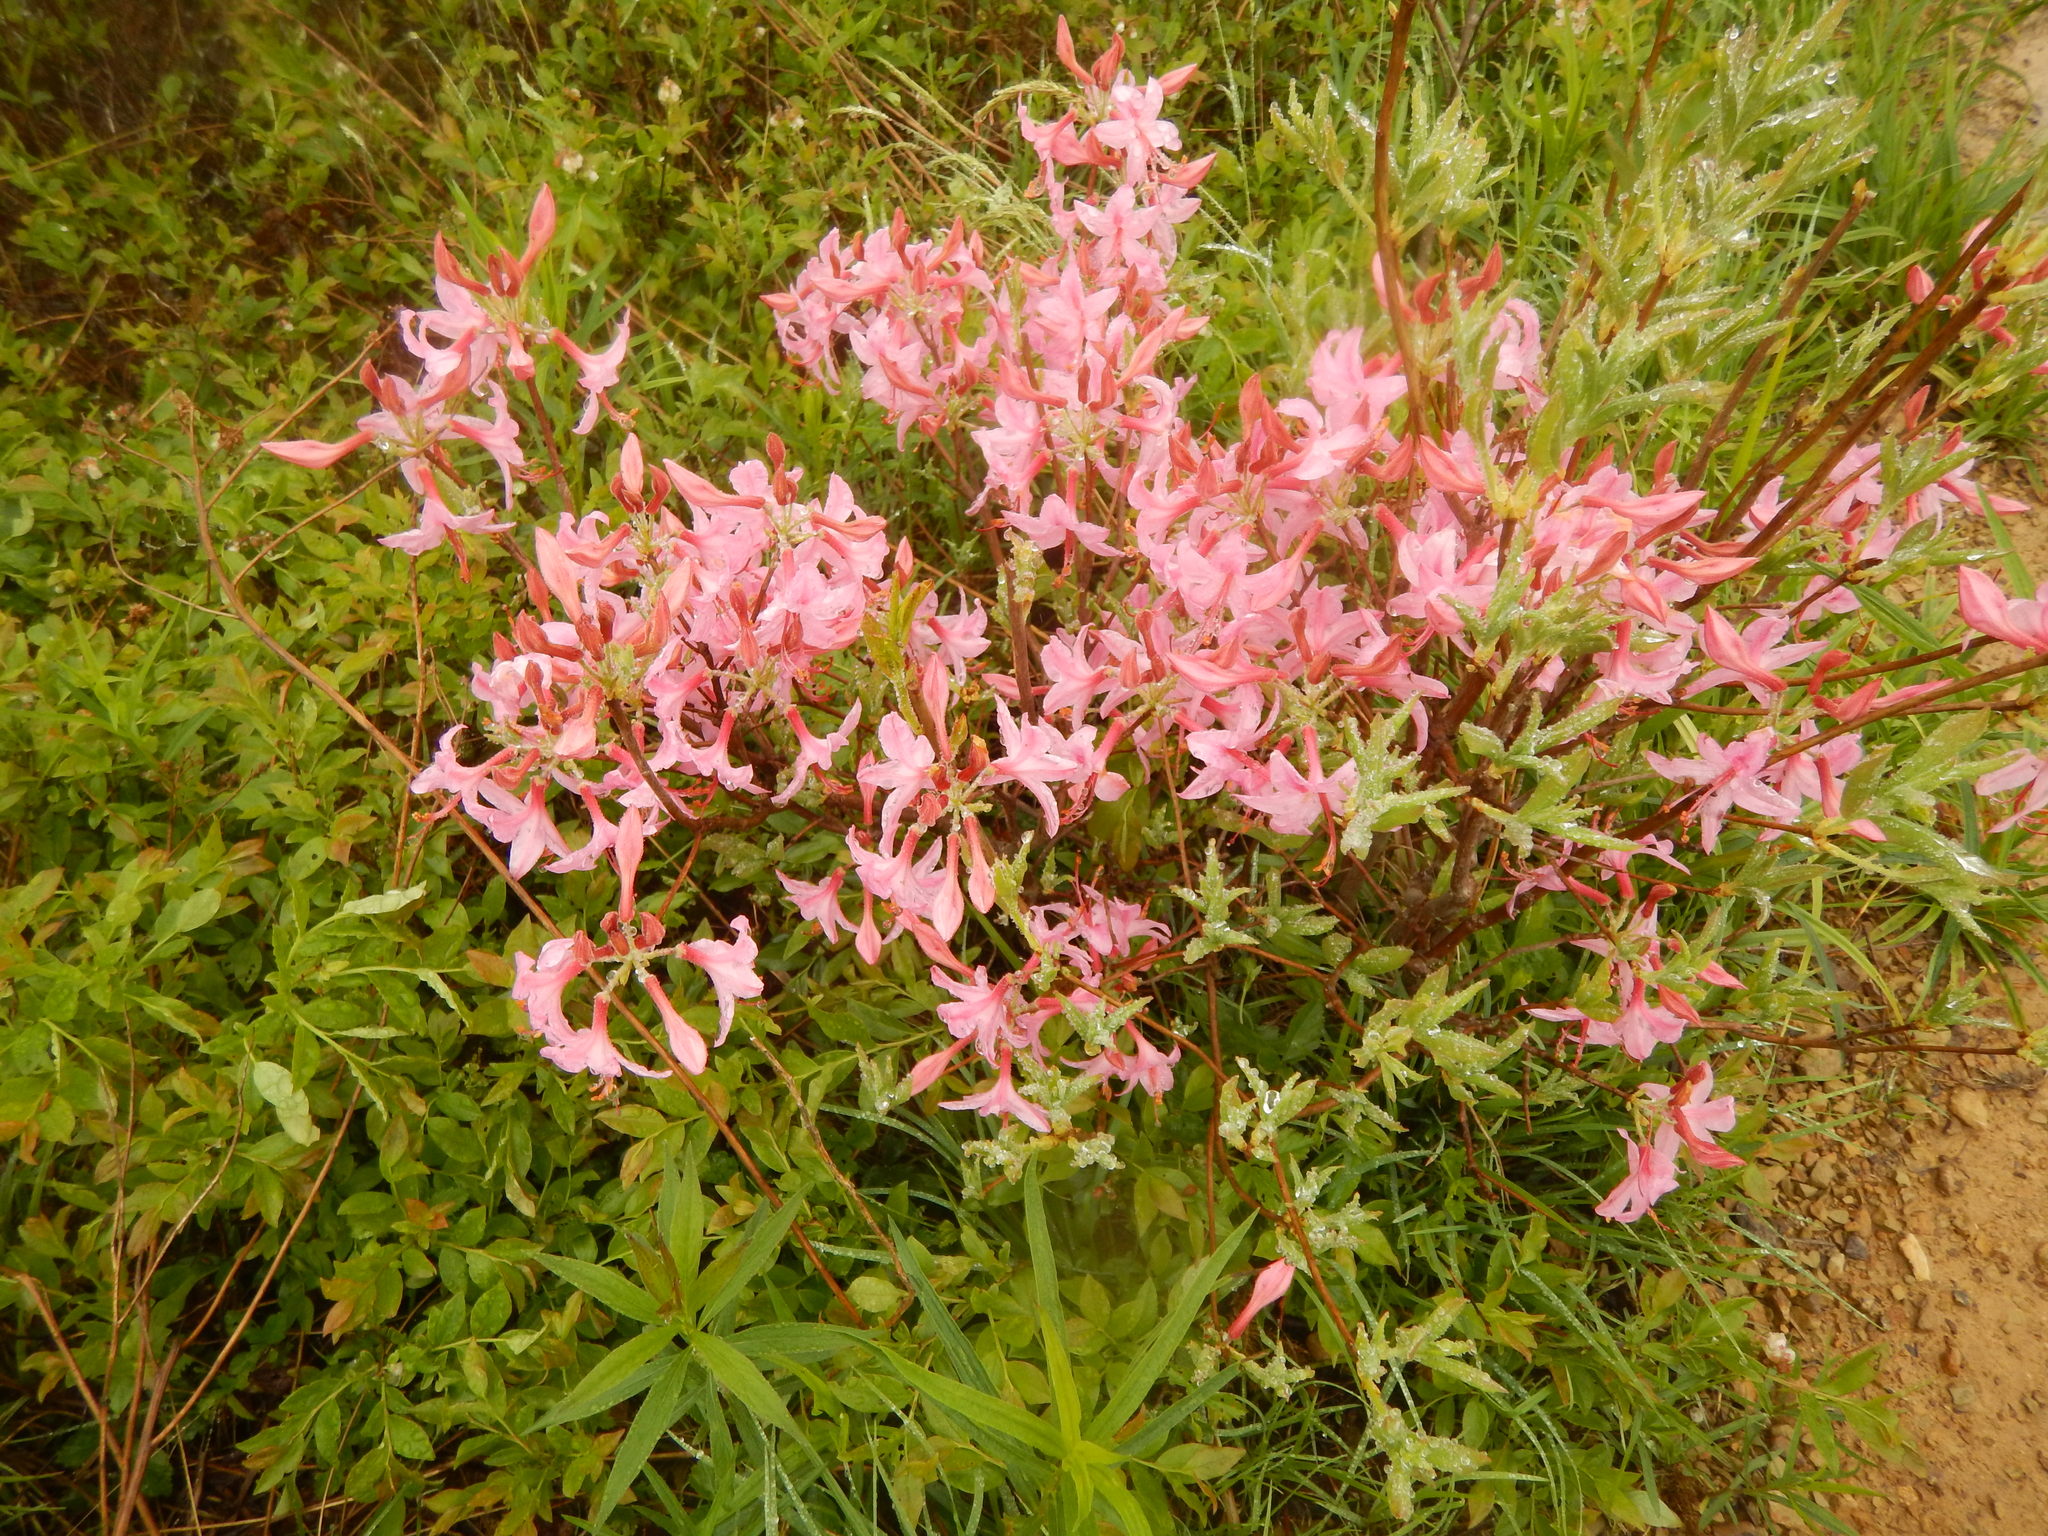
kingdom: Plantae
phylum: Tracheophyta
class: Magnoliopsida
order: Ericales
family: Ericaceae
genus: Rhododendron
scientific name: Rhododendron periclymenoides
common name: Election-pink
